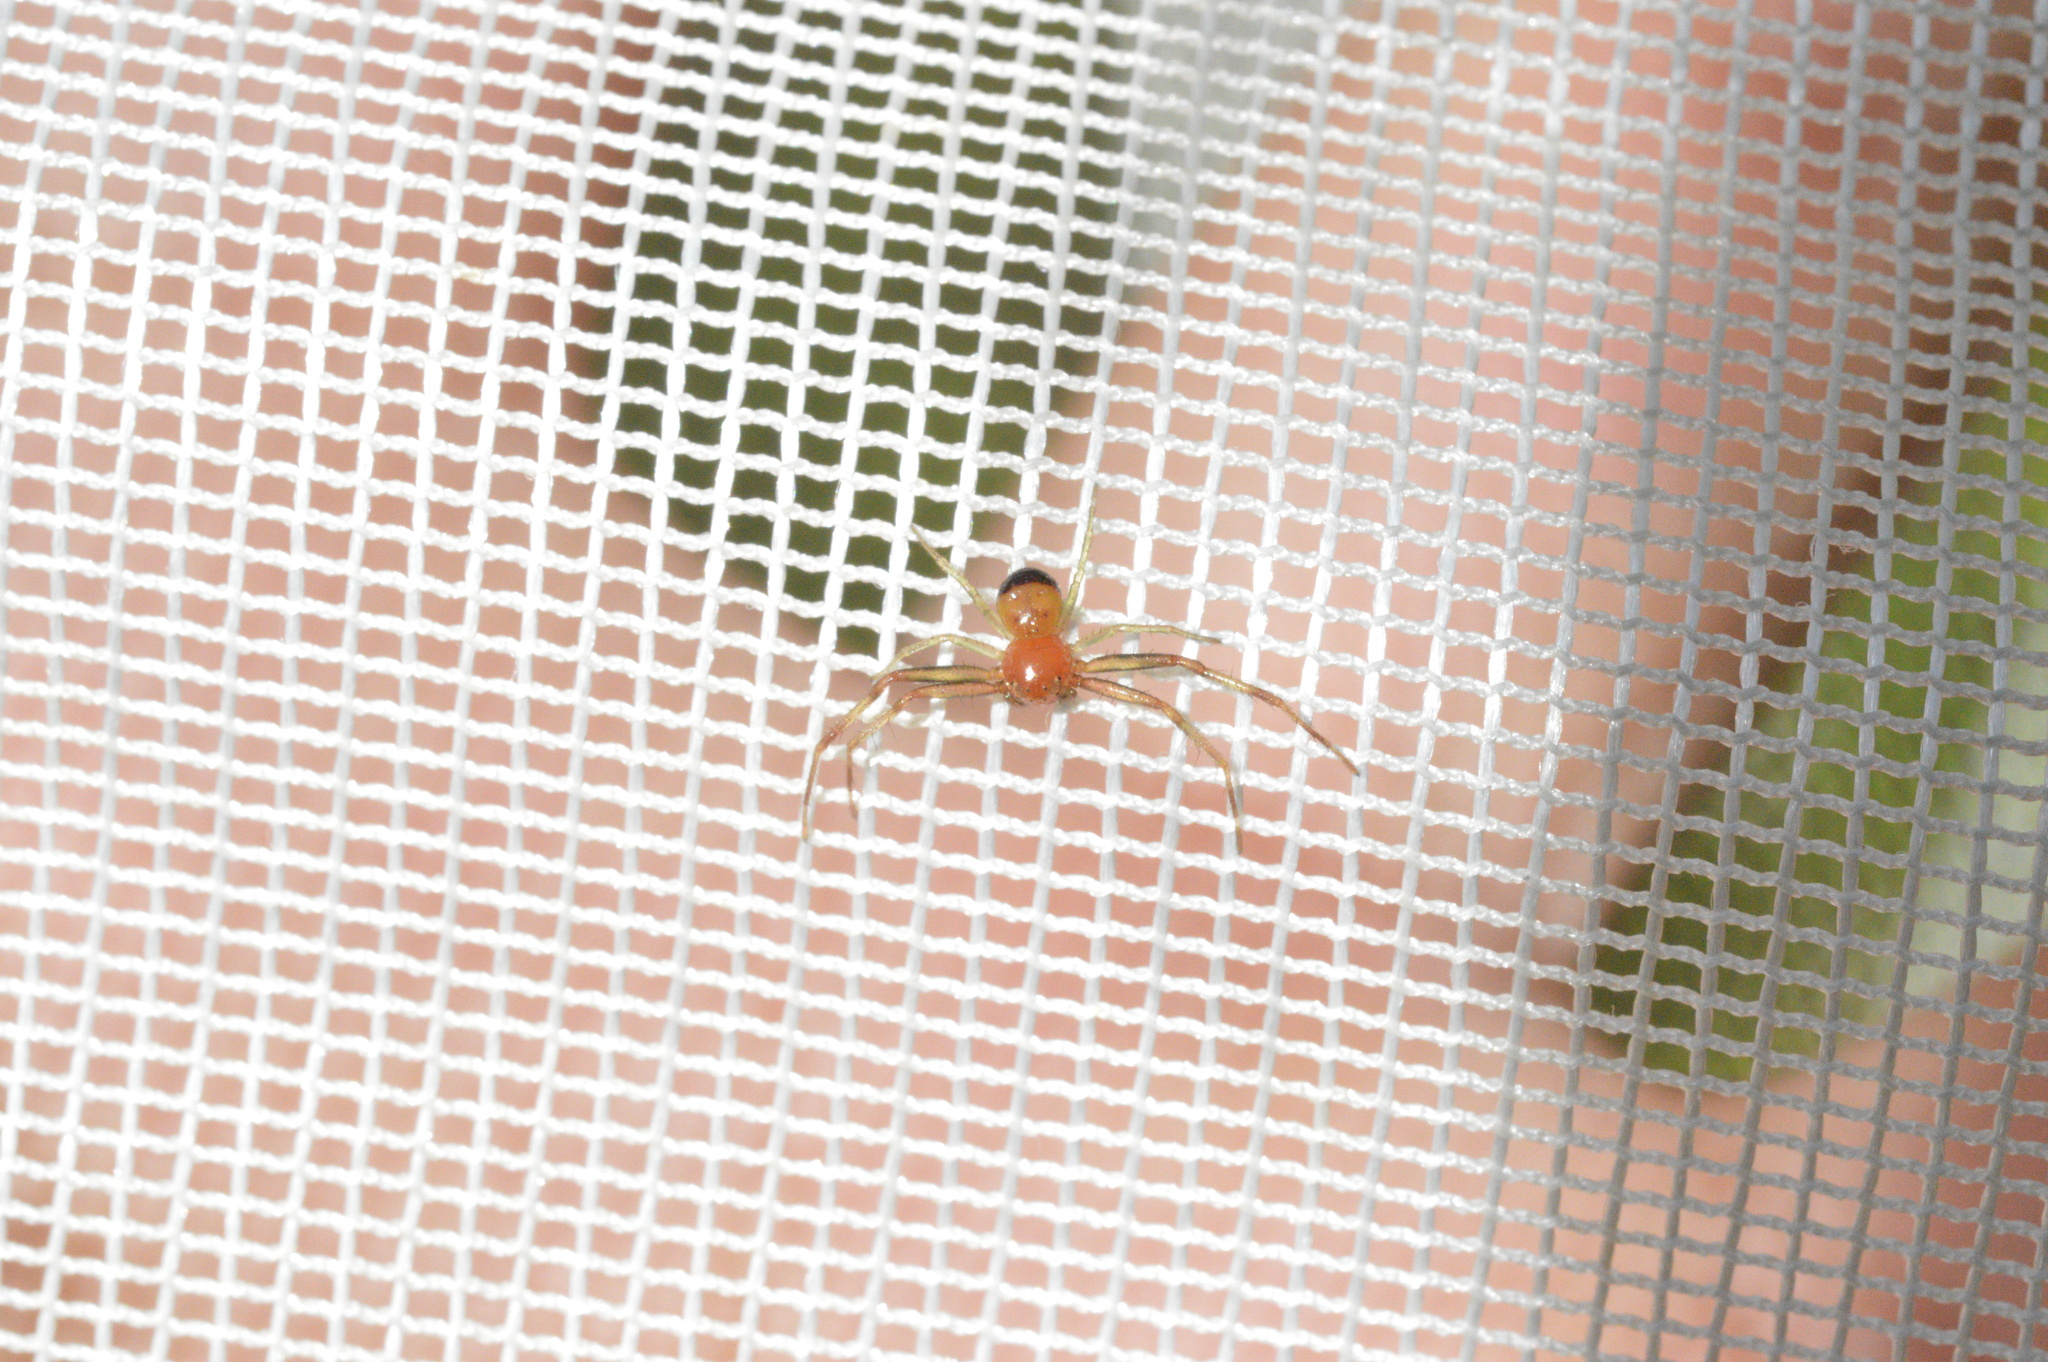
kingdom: Animalia
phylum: Arthropoda
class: Arachnida
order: Araneae
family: Thomisidae
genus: Synema
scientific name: Synema parvulum
